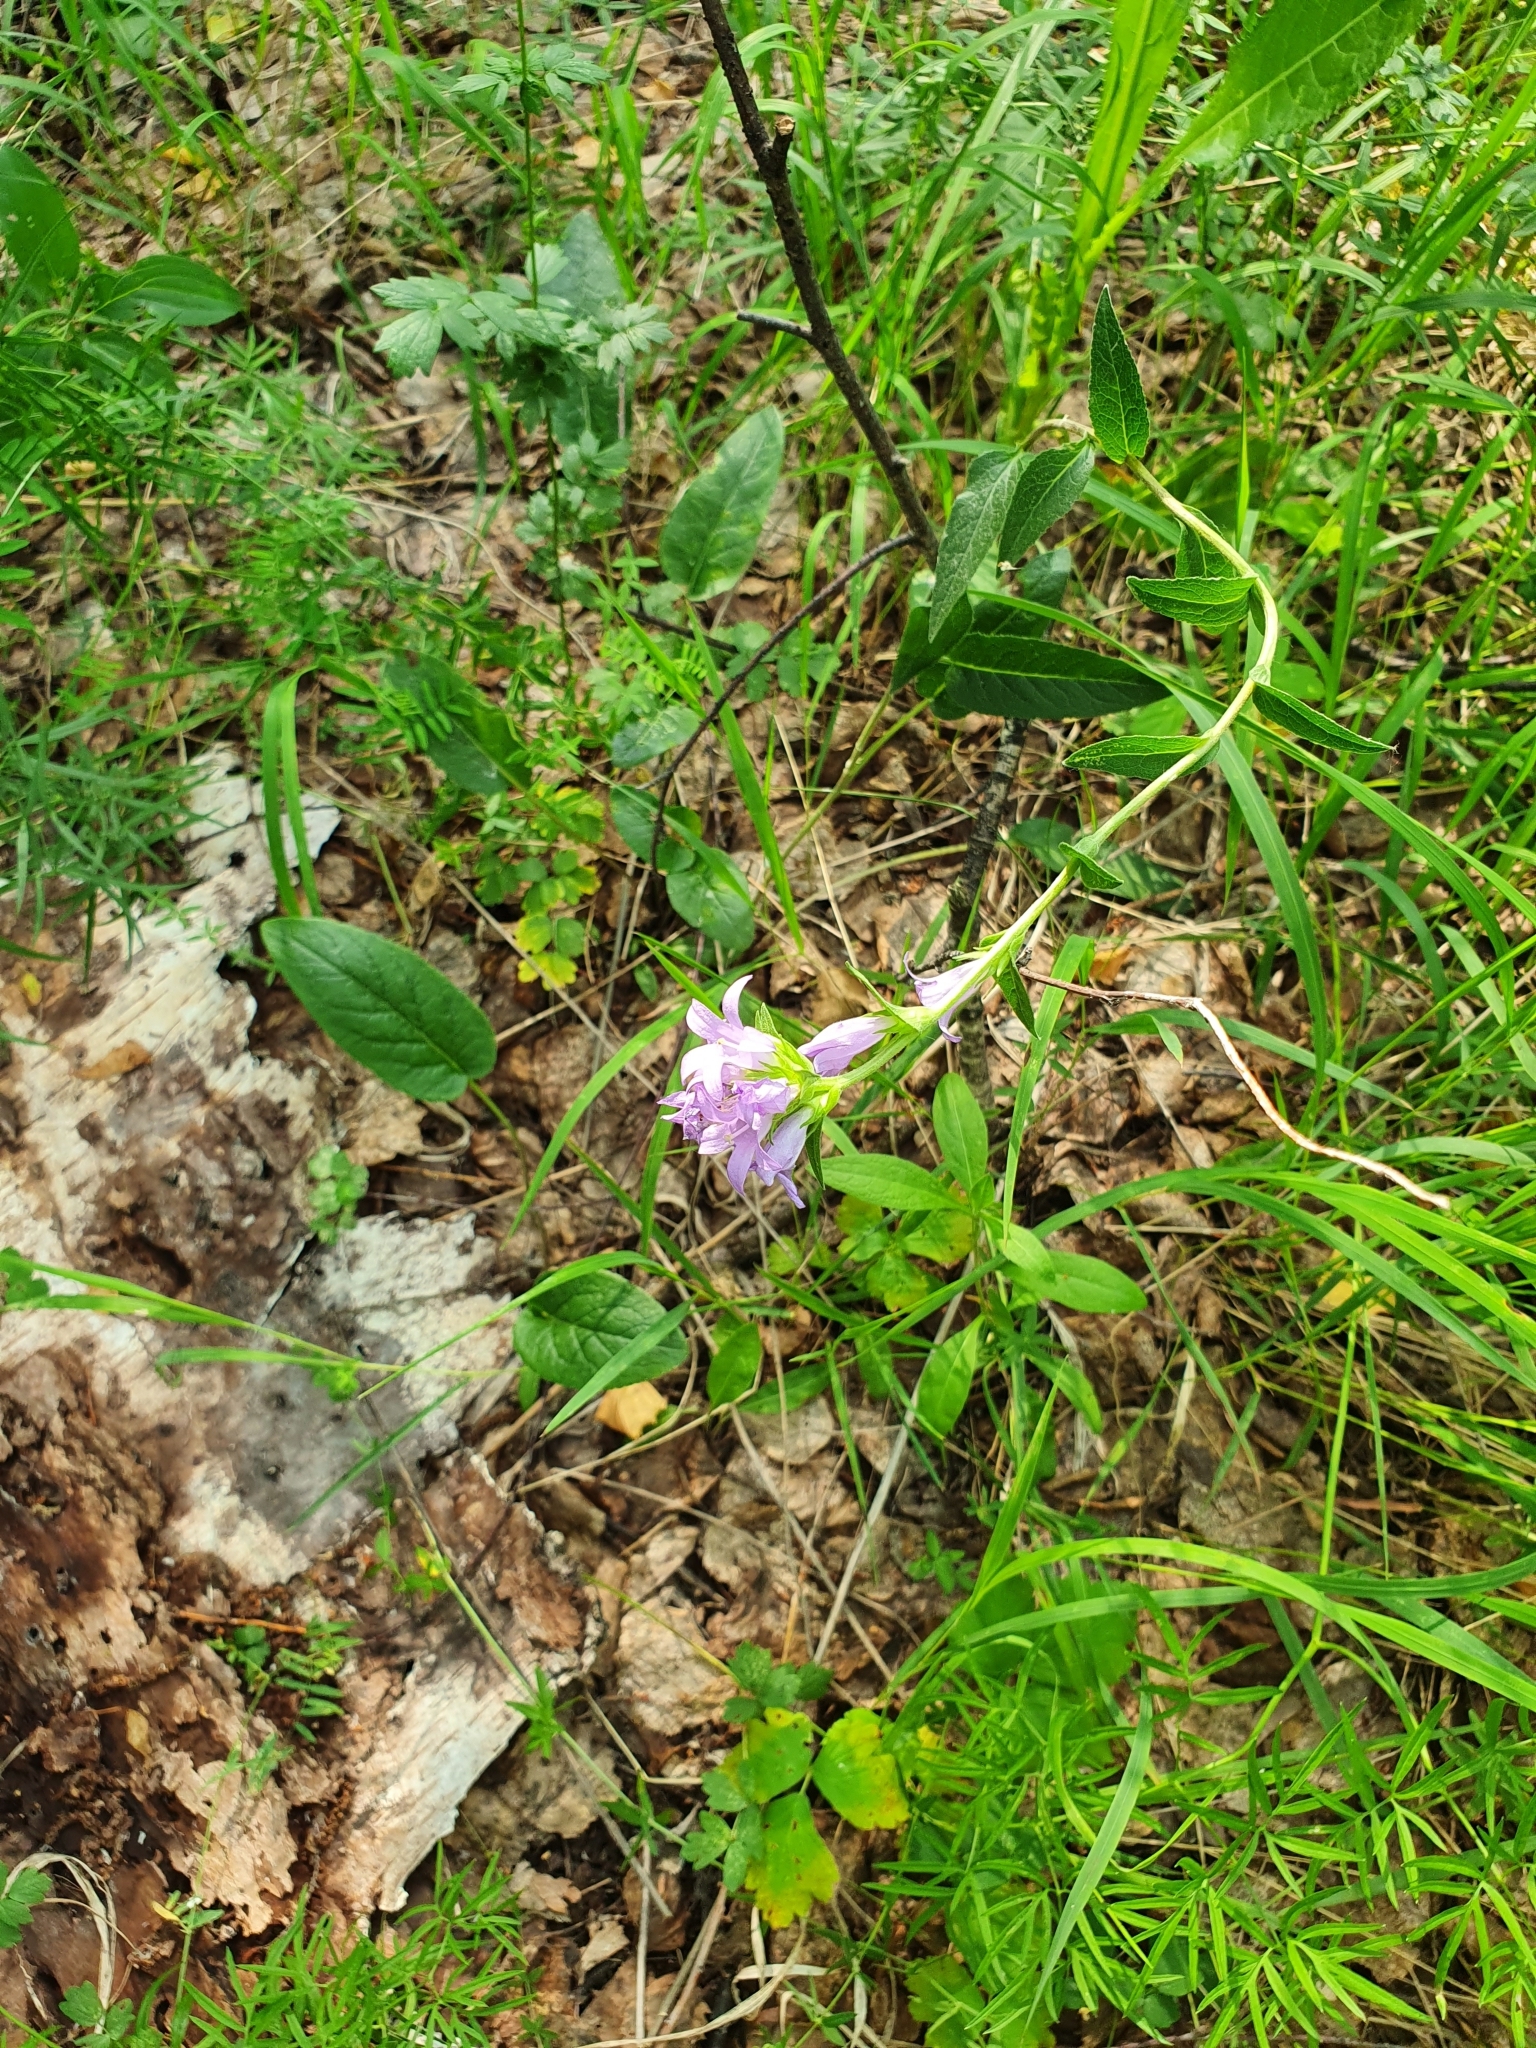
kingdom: Plantae
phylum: Tracheophyta
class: Magnoliopsida
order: Asterales
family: Campanulaceae
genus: Campanula
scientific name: Campanula glomerata
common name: Clustered bellflower
